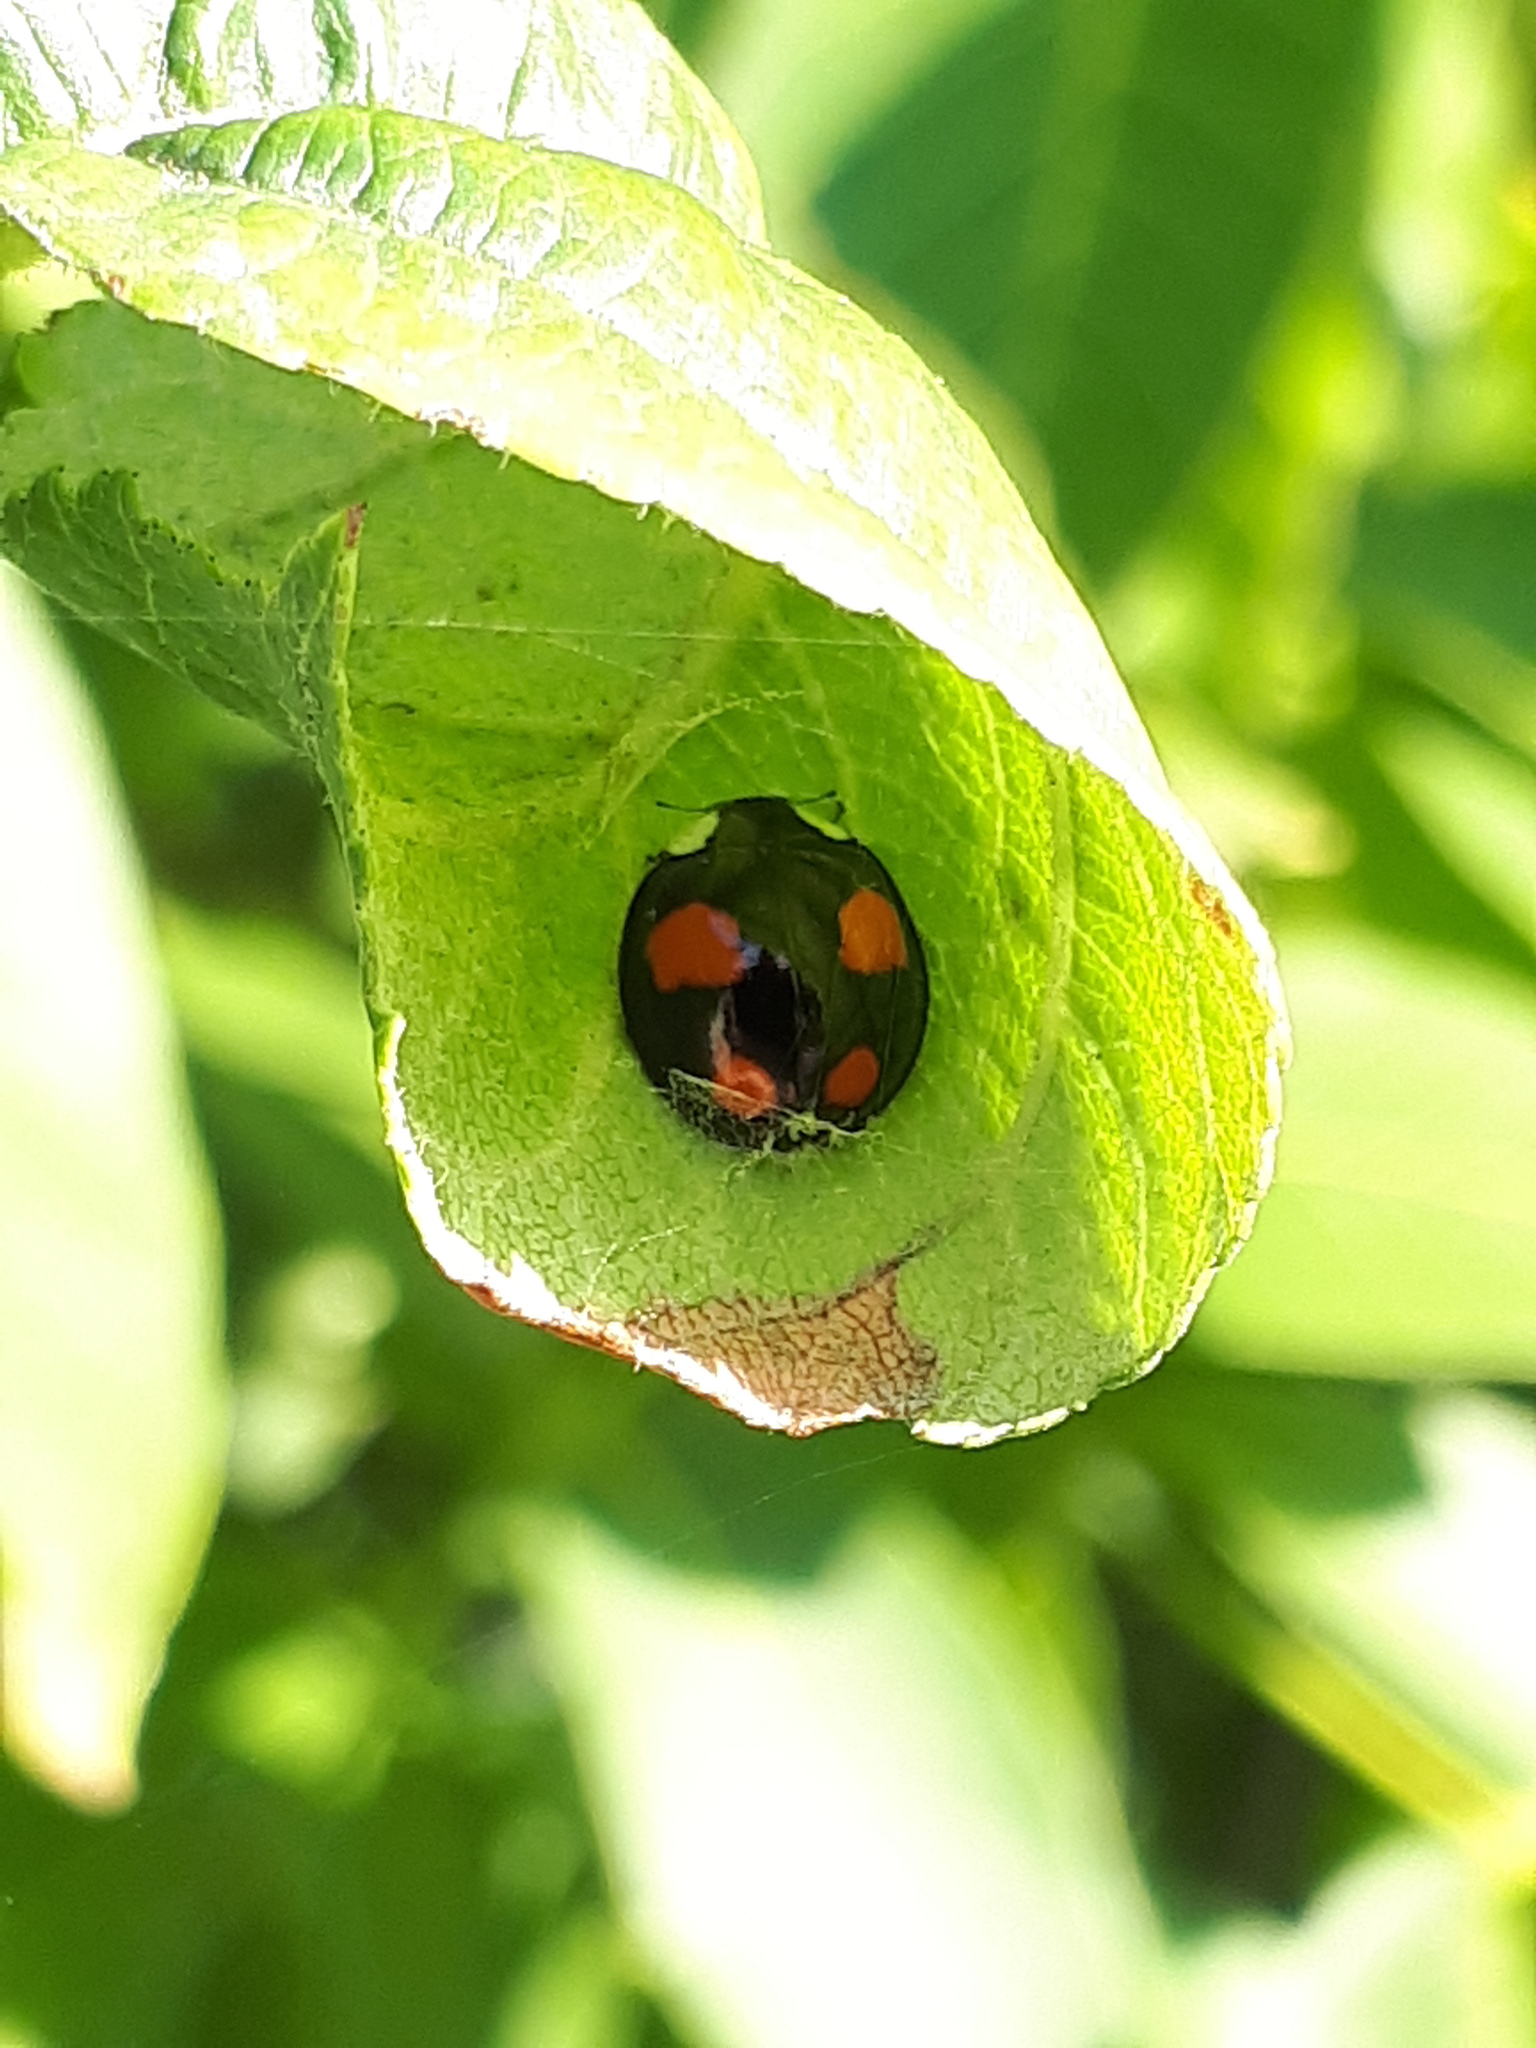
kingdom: Animalia
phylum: Arthropoda
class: Insecta
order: Coleoptera
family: Coccinellidae
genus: Harmonia
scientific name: Harmonia axyridis
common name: Harlequin ladybird
